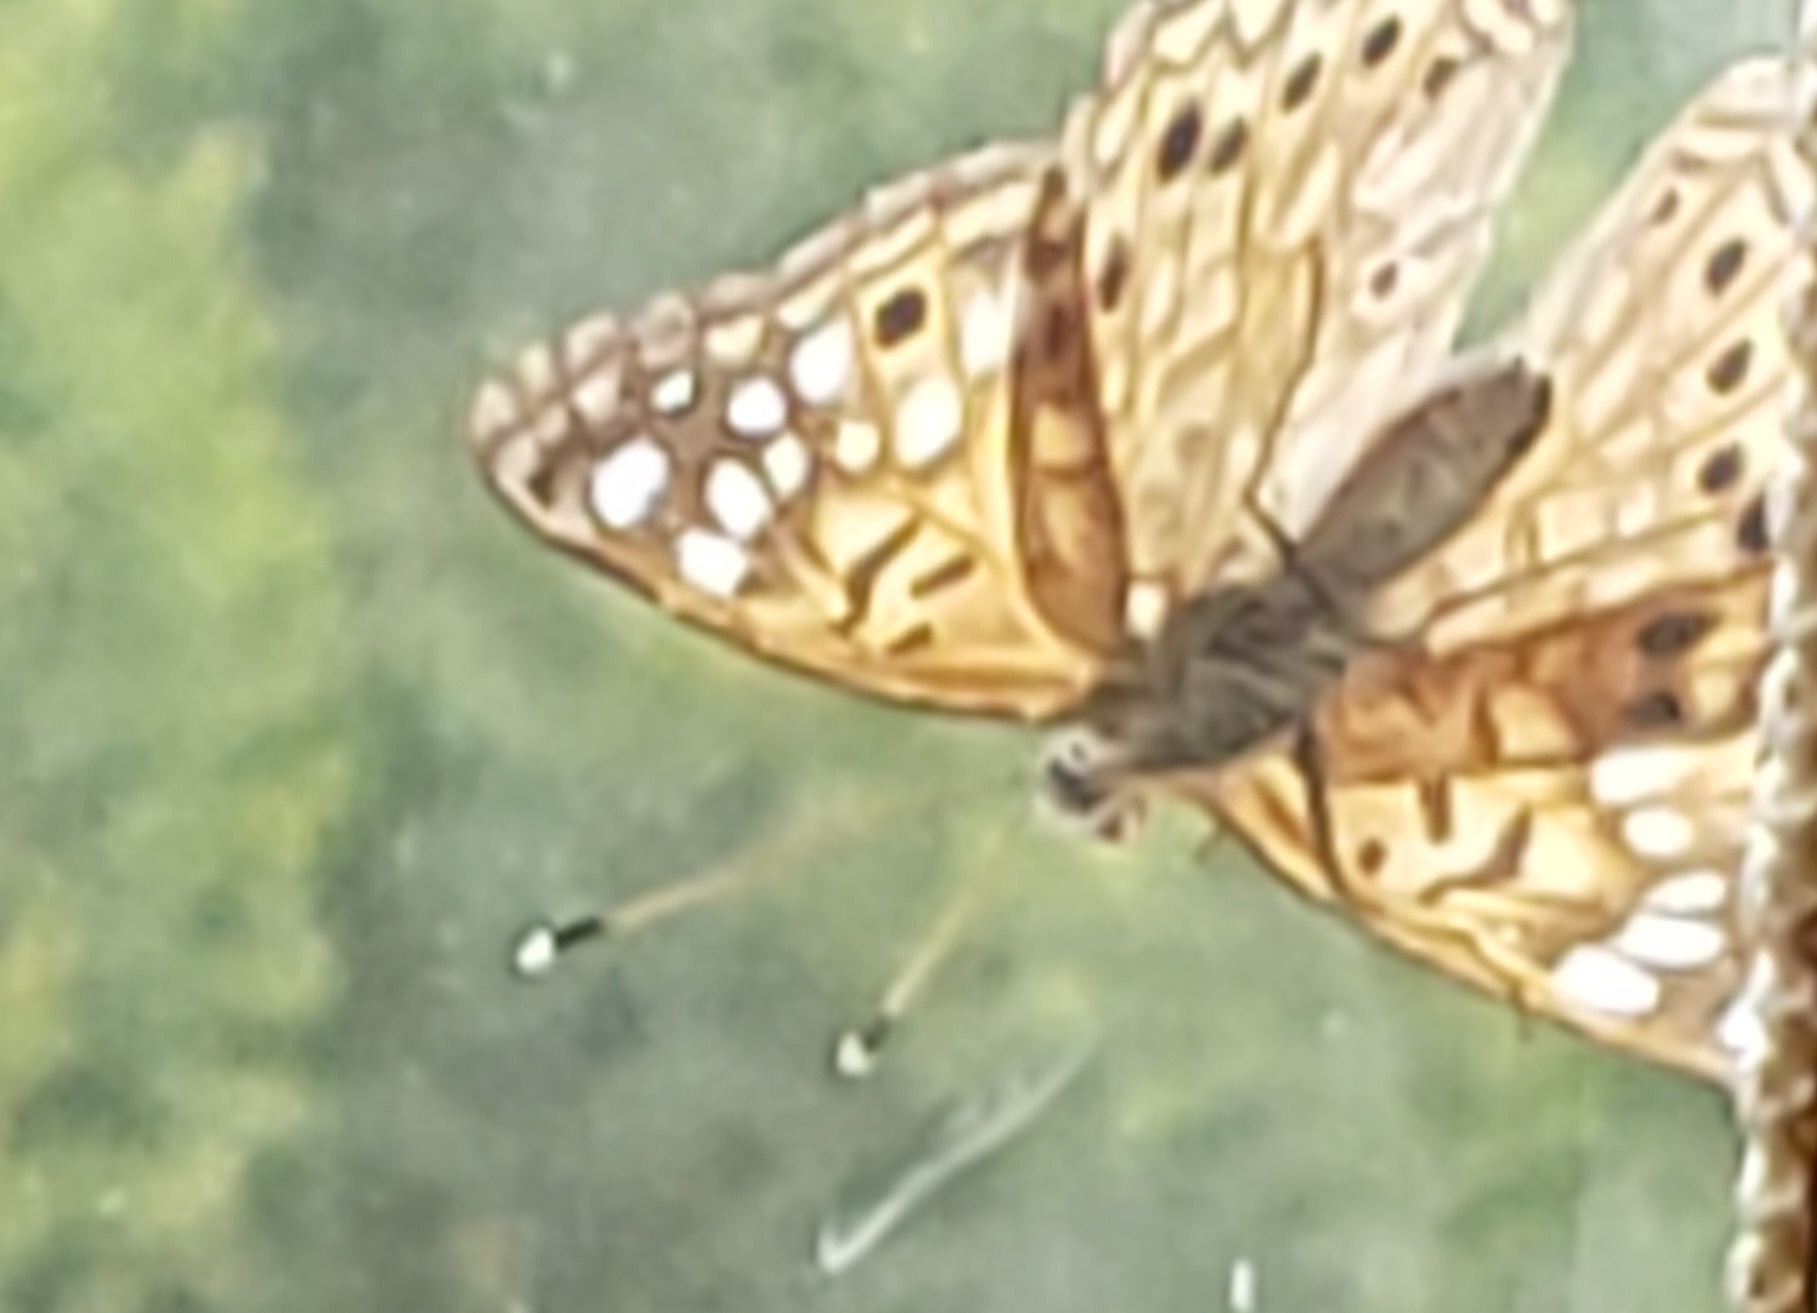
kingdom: Animalia
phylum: Arthropoda
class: Insecta
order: Lepidoptera
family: Nymphalidae
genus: Asterocampa
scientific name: Asterocampa celtis
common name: Hackberry emperor
